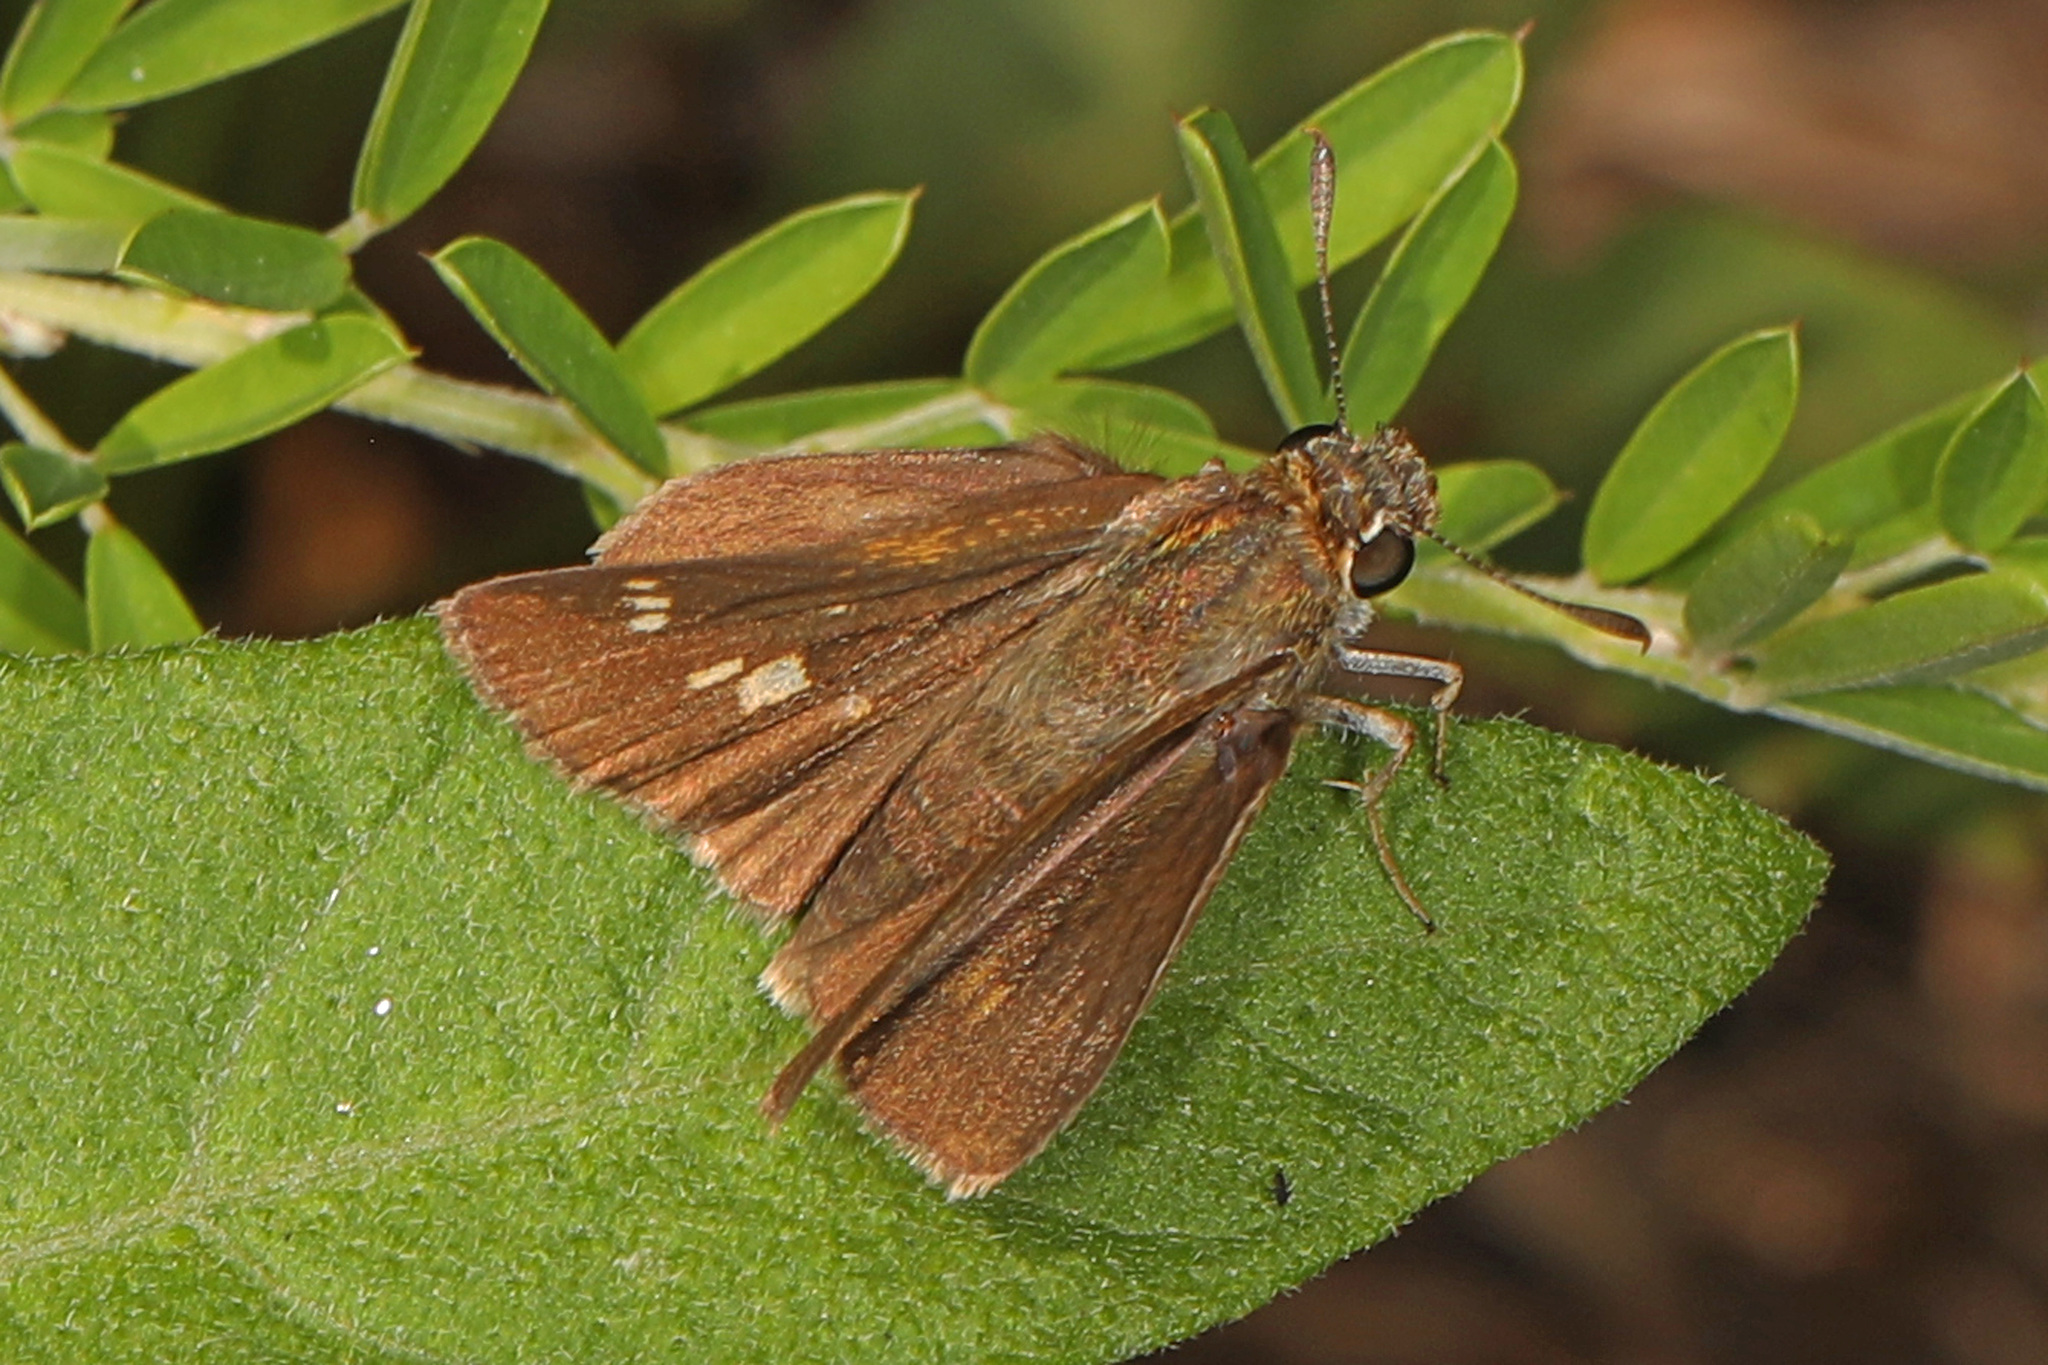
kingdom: Animalia
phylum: Arthropoda
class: Insecta
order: Lepidoptera
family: Hesperiidae
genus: Vernia
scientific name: Vernia verna
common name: Little glassywing
